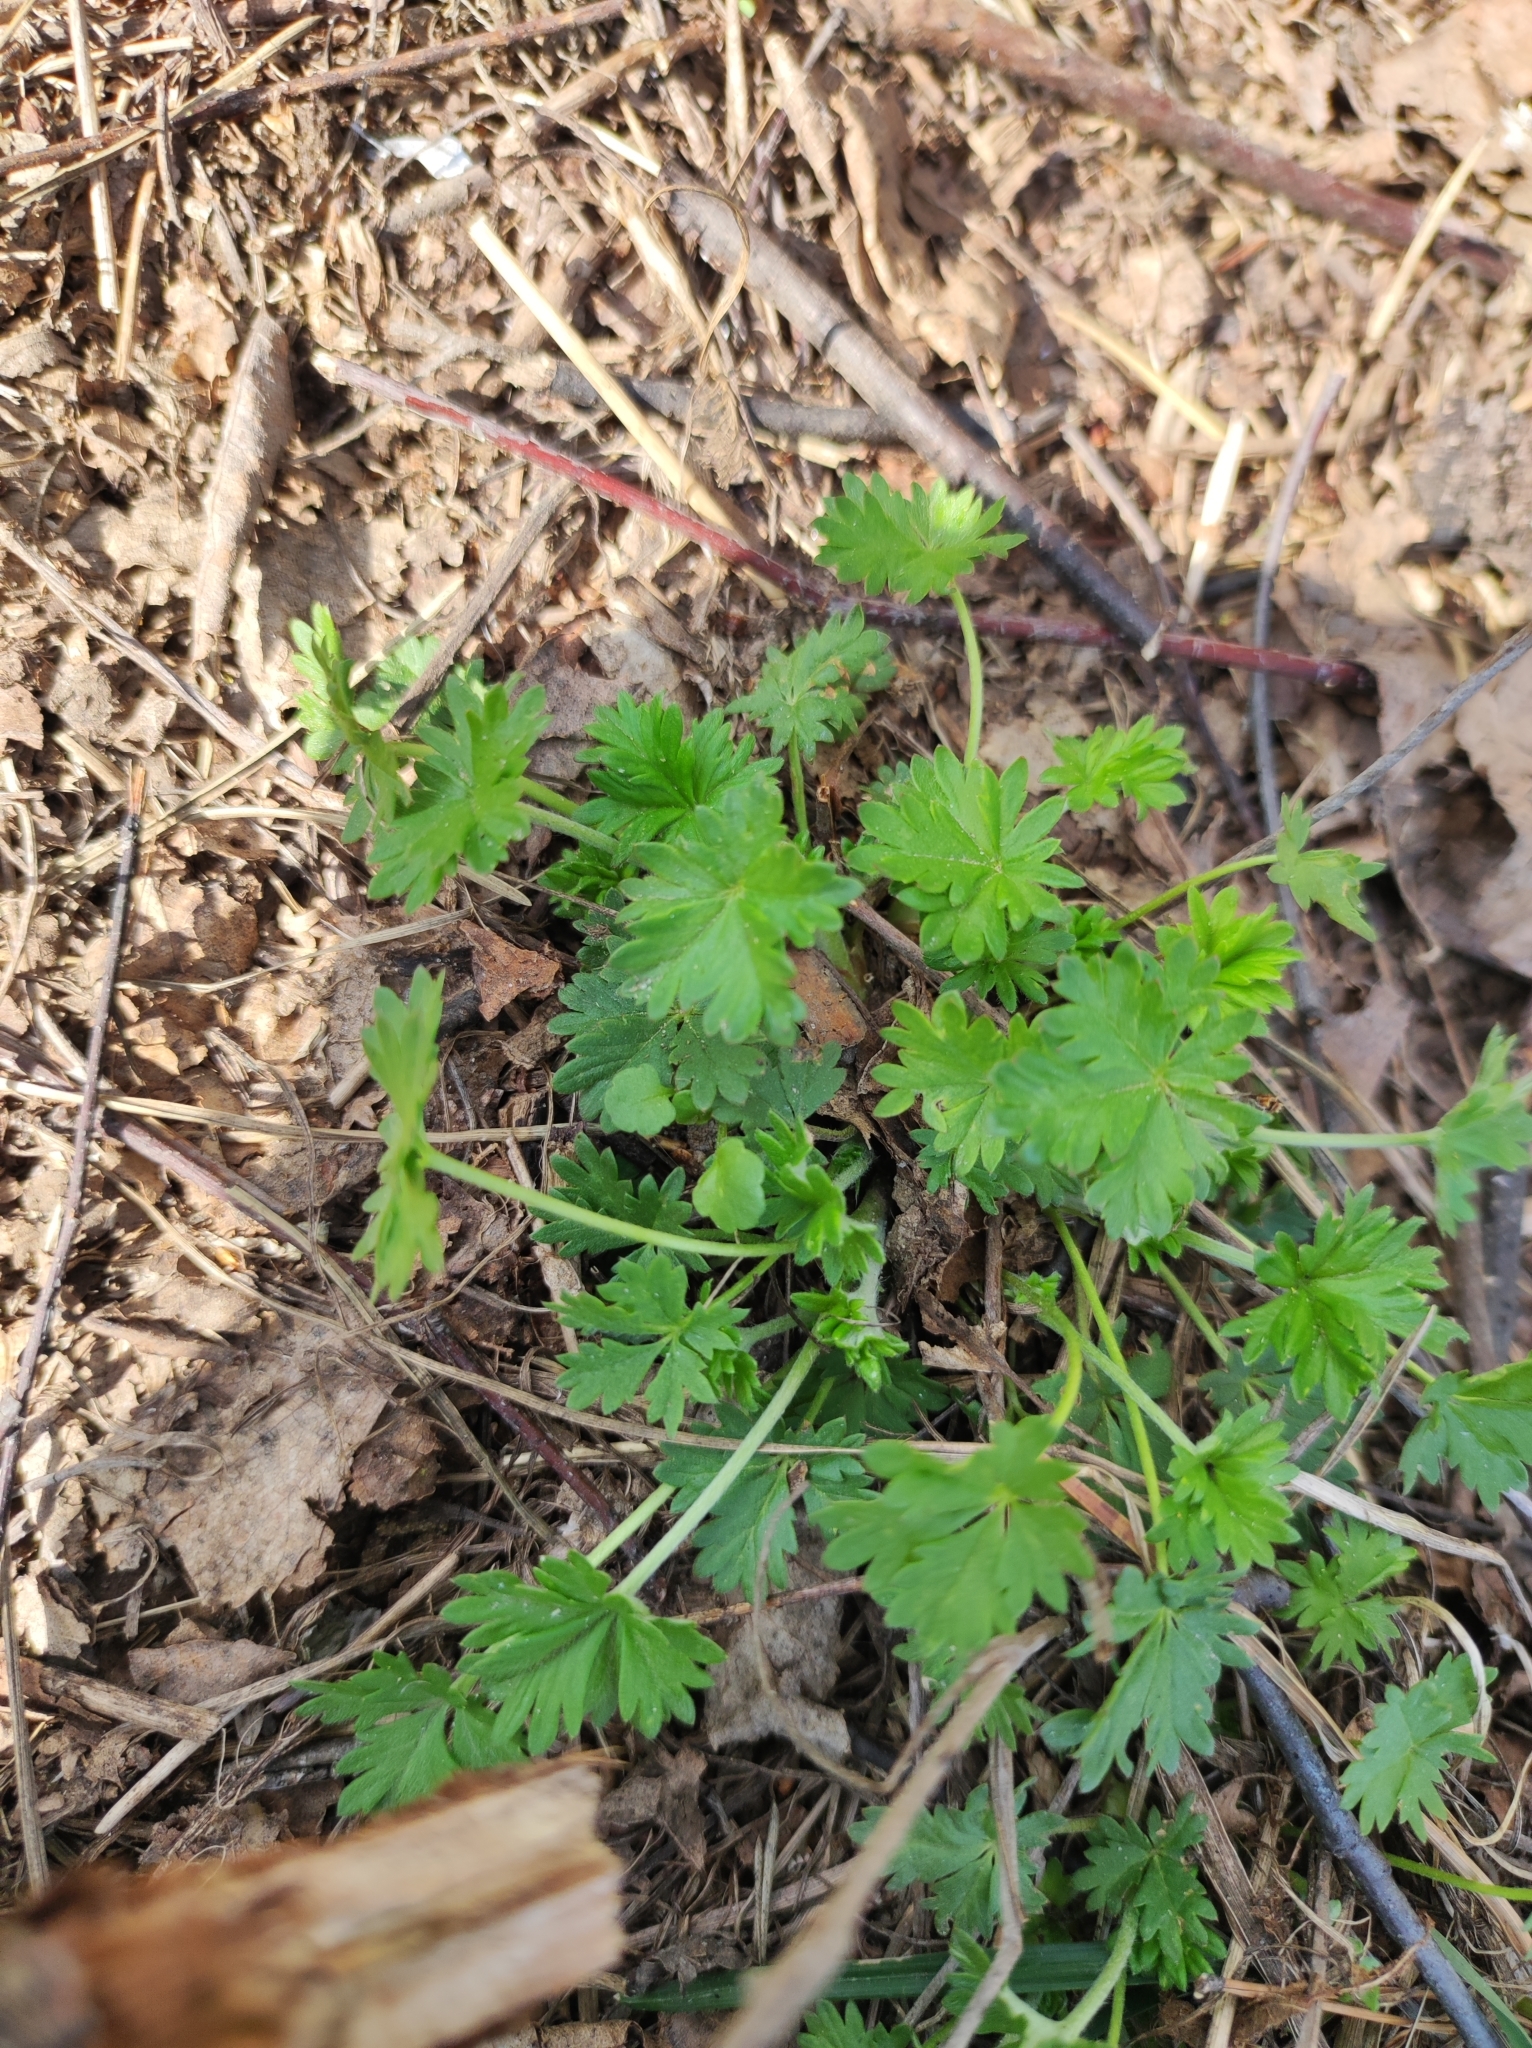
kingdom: Plantae
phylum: Tracheophyta
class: Magnoliopsida
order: Rosales
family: Rosaceae
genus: Potentilla
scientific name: Potentilla argentea
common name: Hoary cinquefoil
